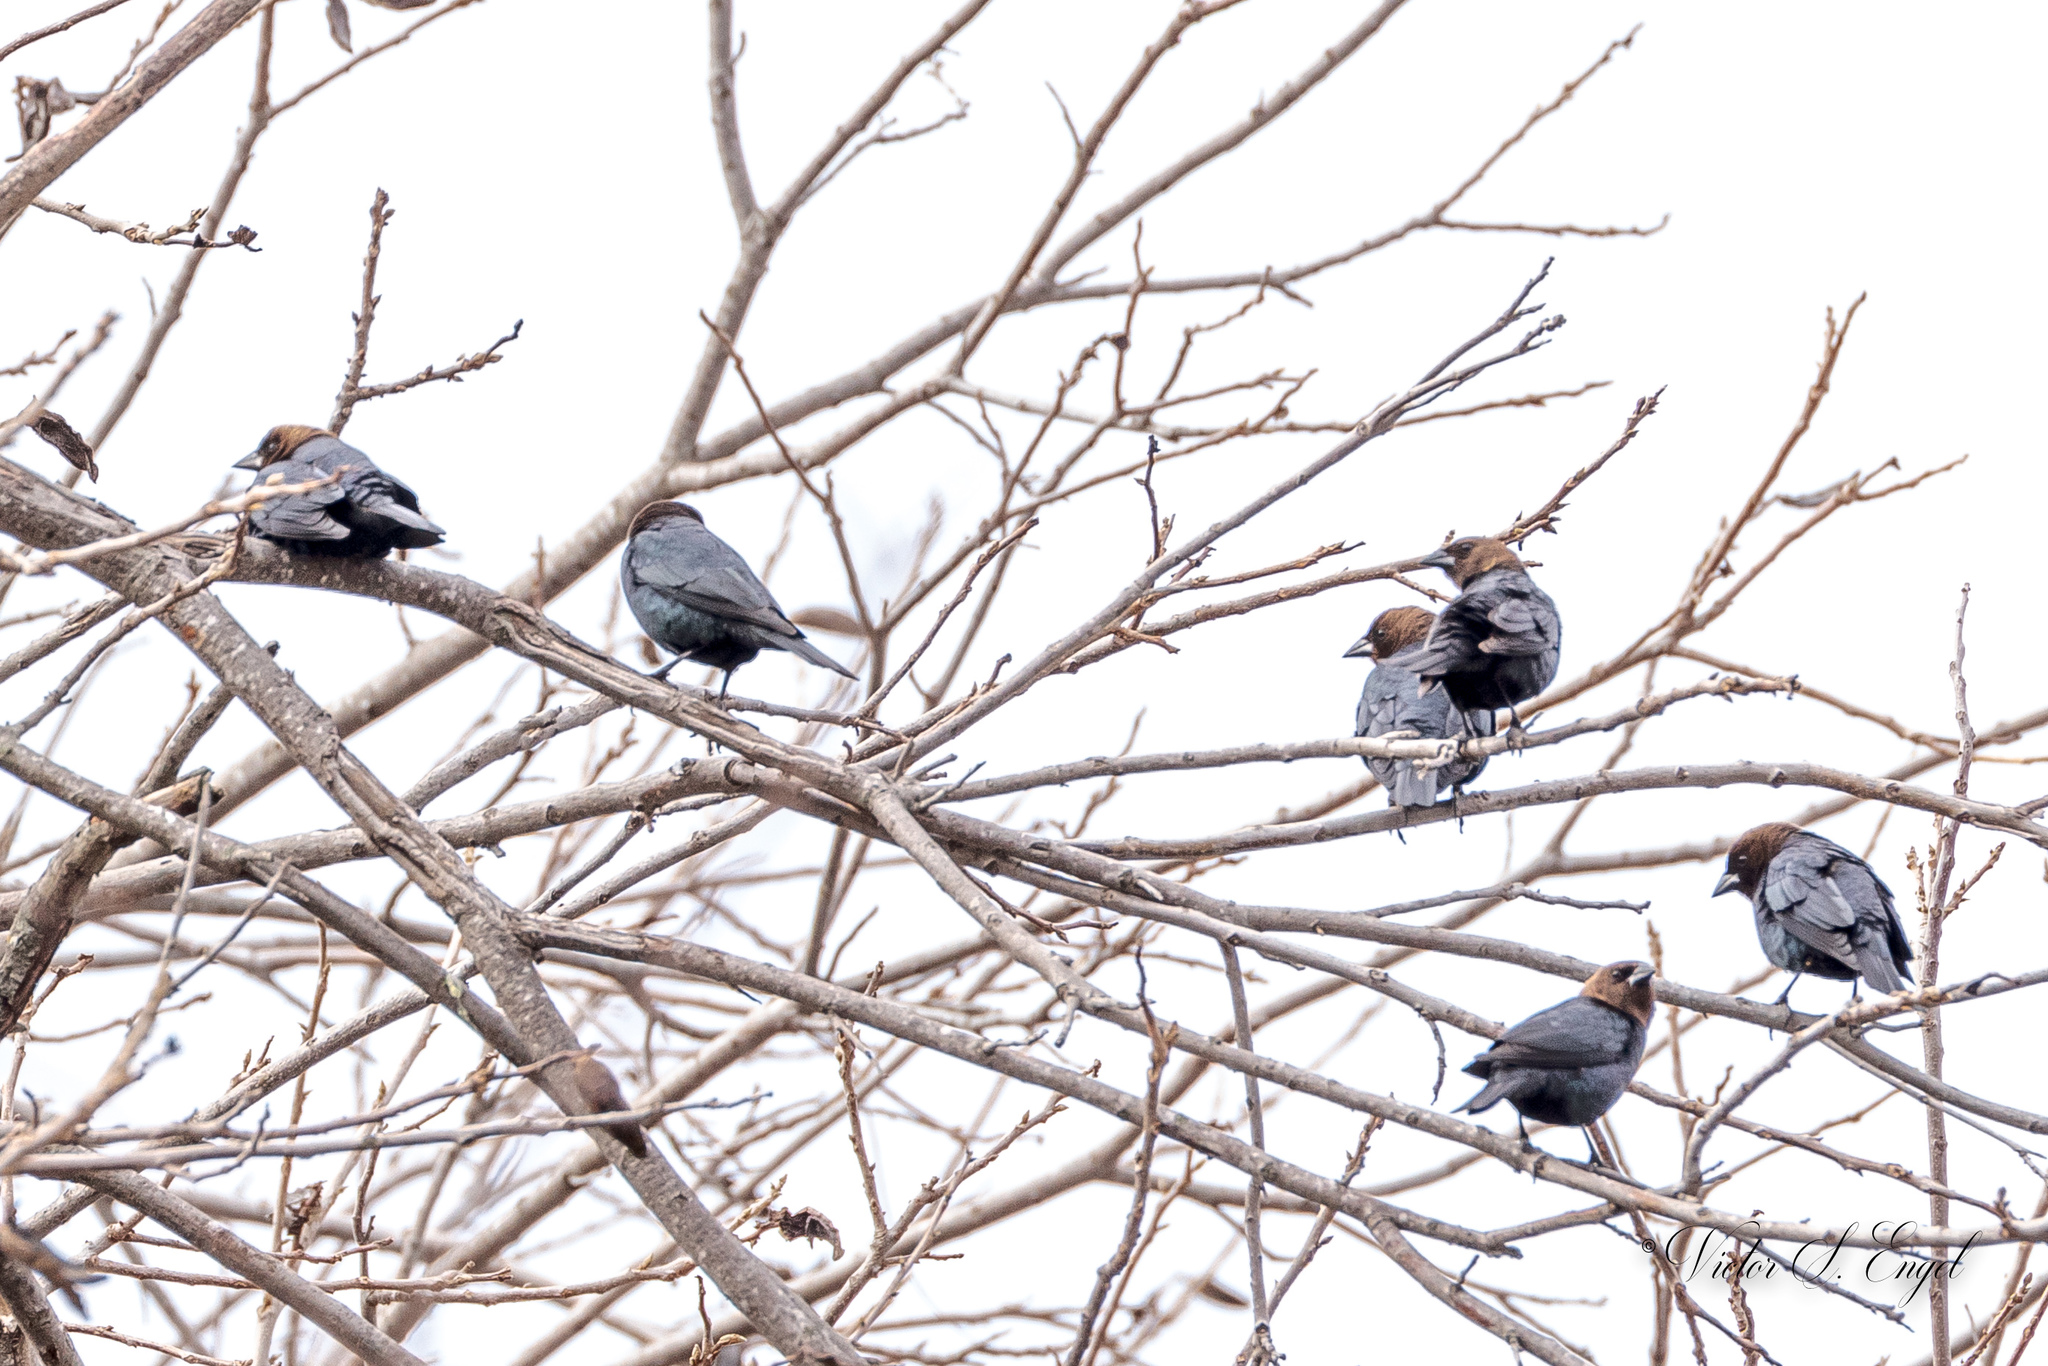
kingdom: Animalia
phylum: Chordata
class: Aves
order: Passeriformes
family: Icteridae
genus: Molothrus
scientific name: Molothrus ater
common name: Brown-headed cowbird
